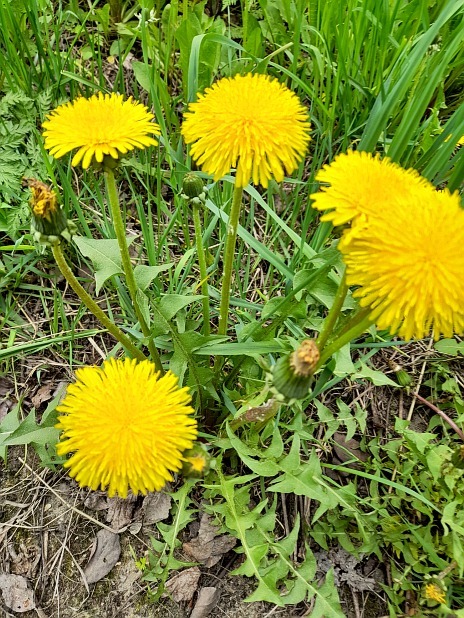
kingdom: Plantae
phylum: Tracheophyta
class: Magnoliopsida
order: Asterales
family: Asteraceae
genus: Taraxacum
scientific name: Taraxacum officinale
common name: Common dandelion
